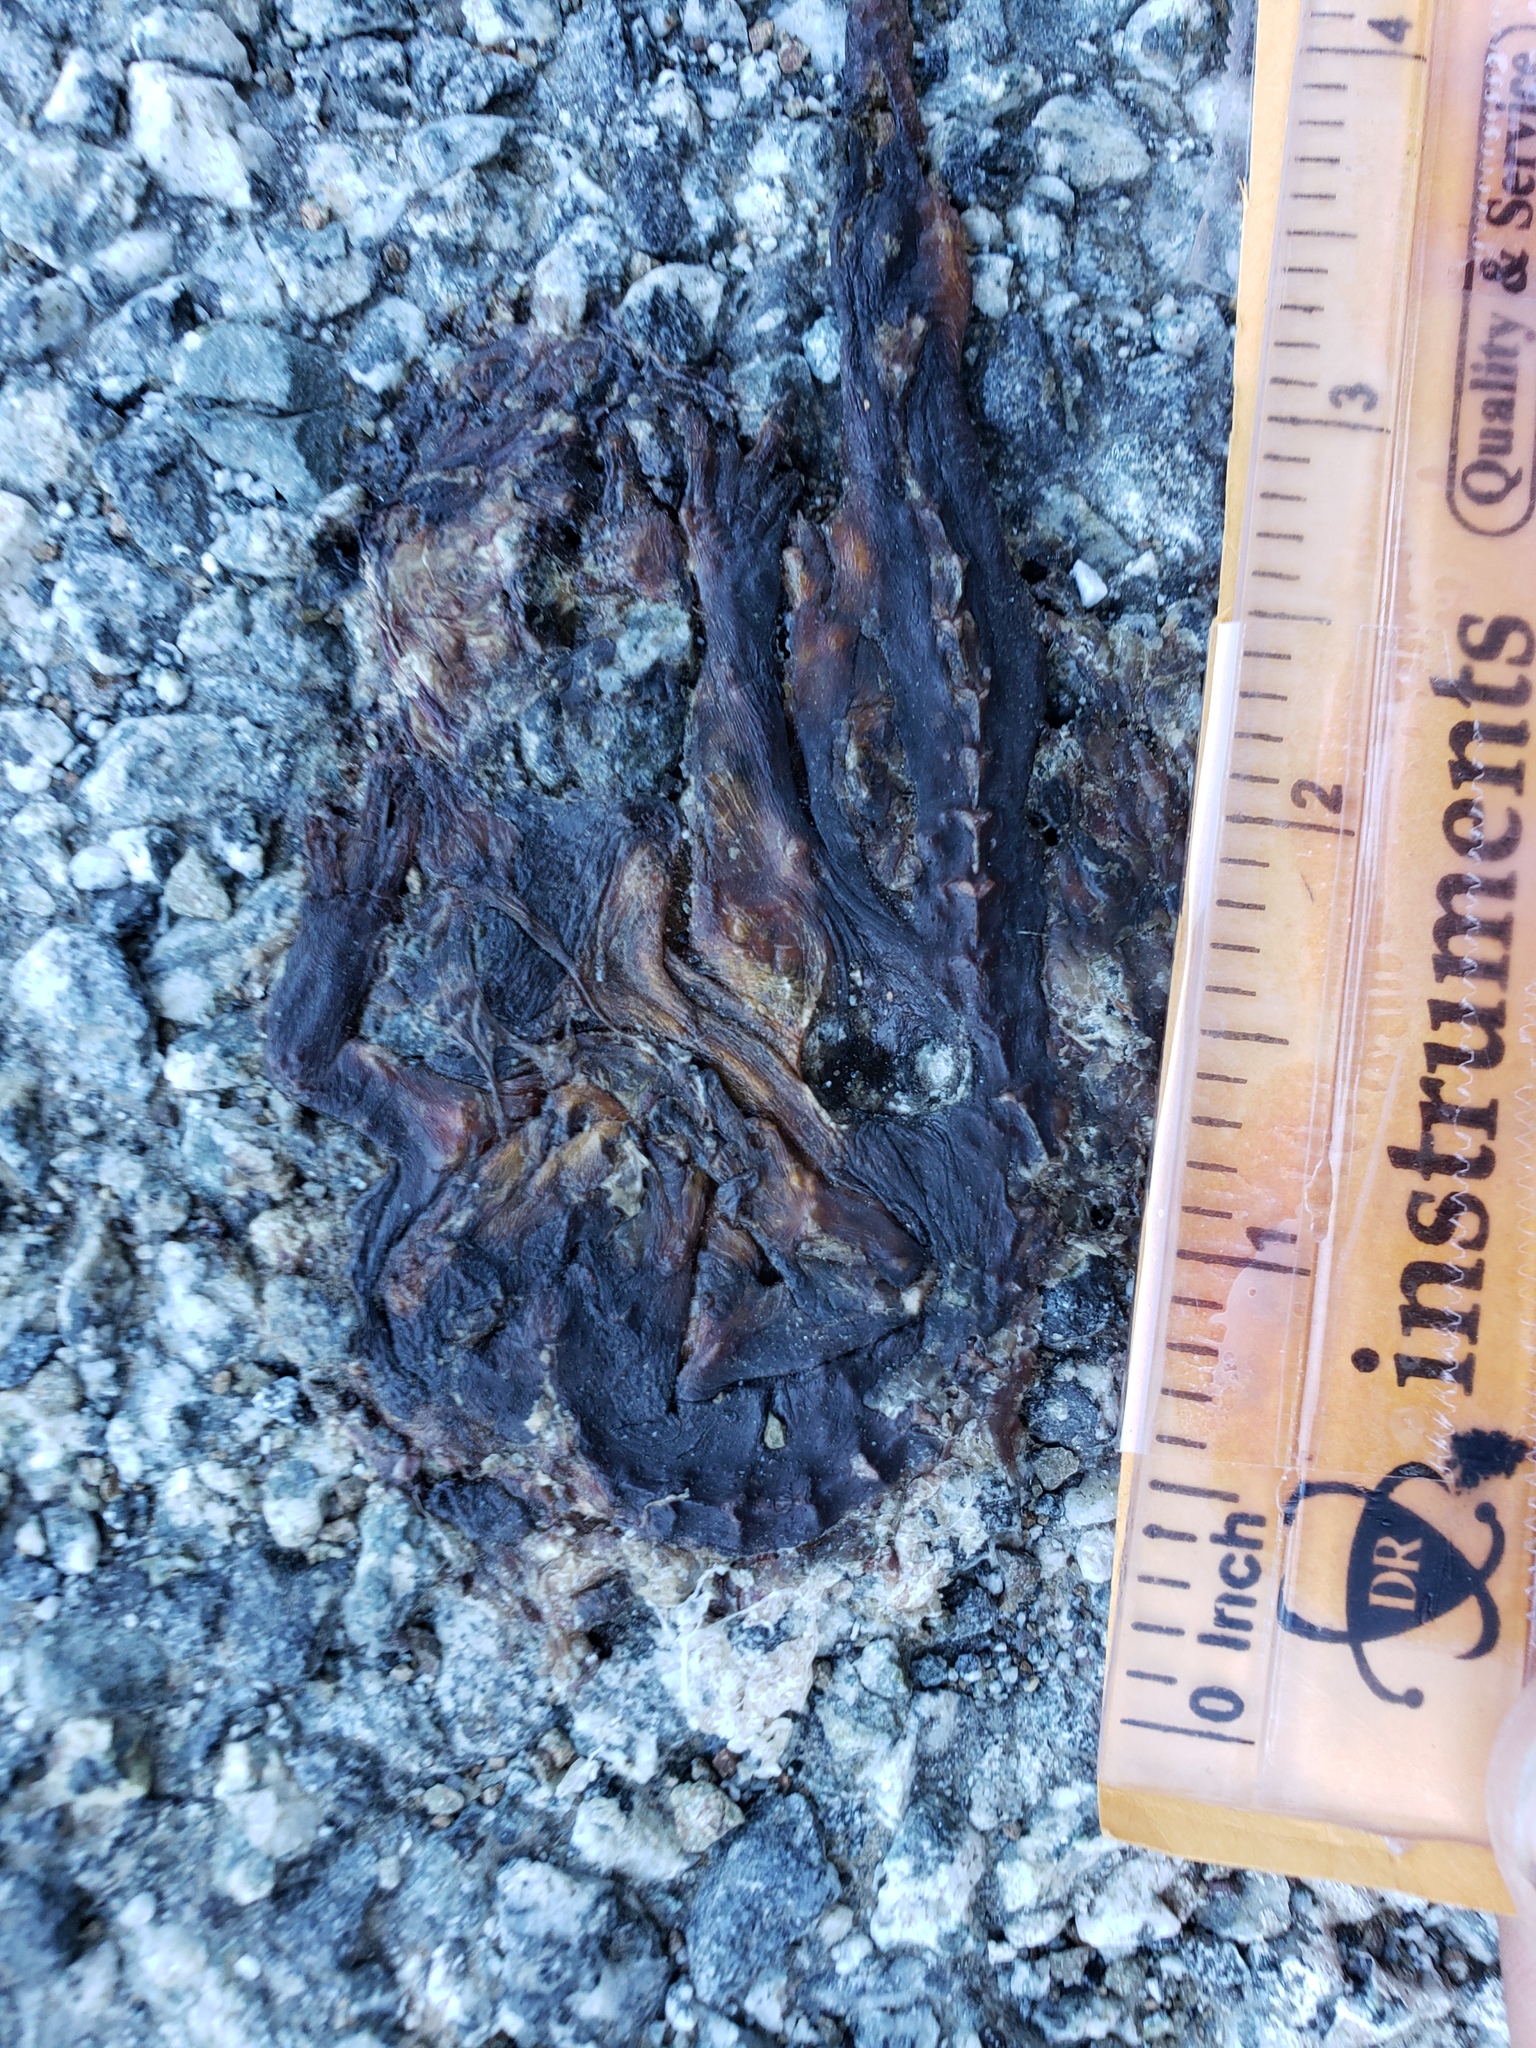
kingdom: Animalia
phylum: Chordata
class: Amphibia
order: Caudata
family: Salamandridae
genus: Taricha
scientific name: Taricha
